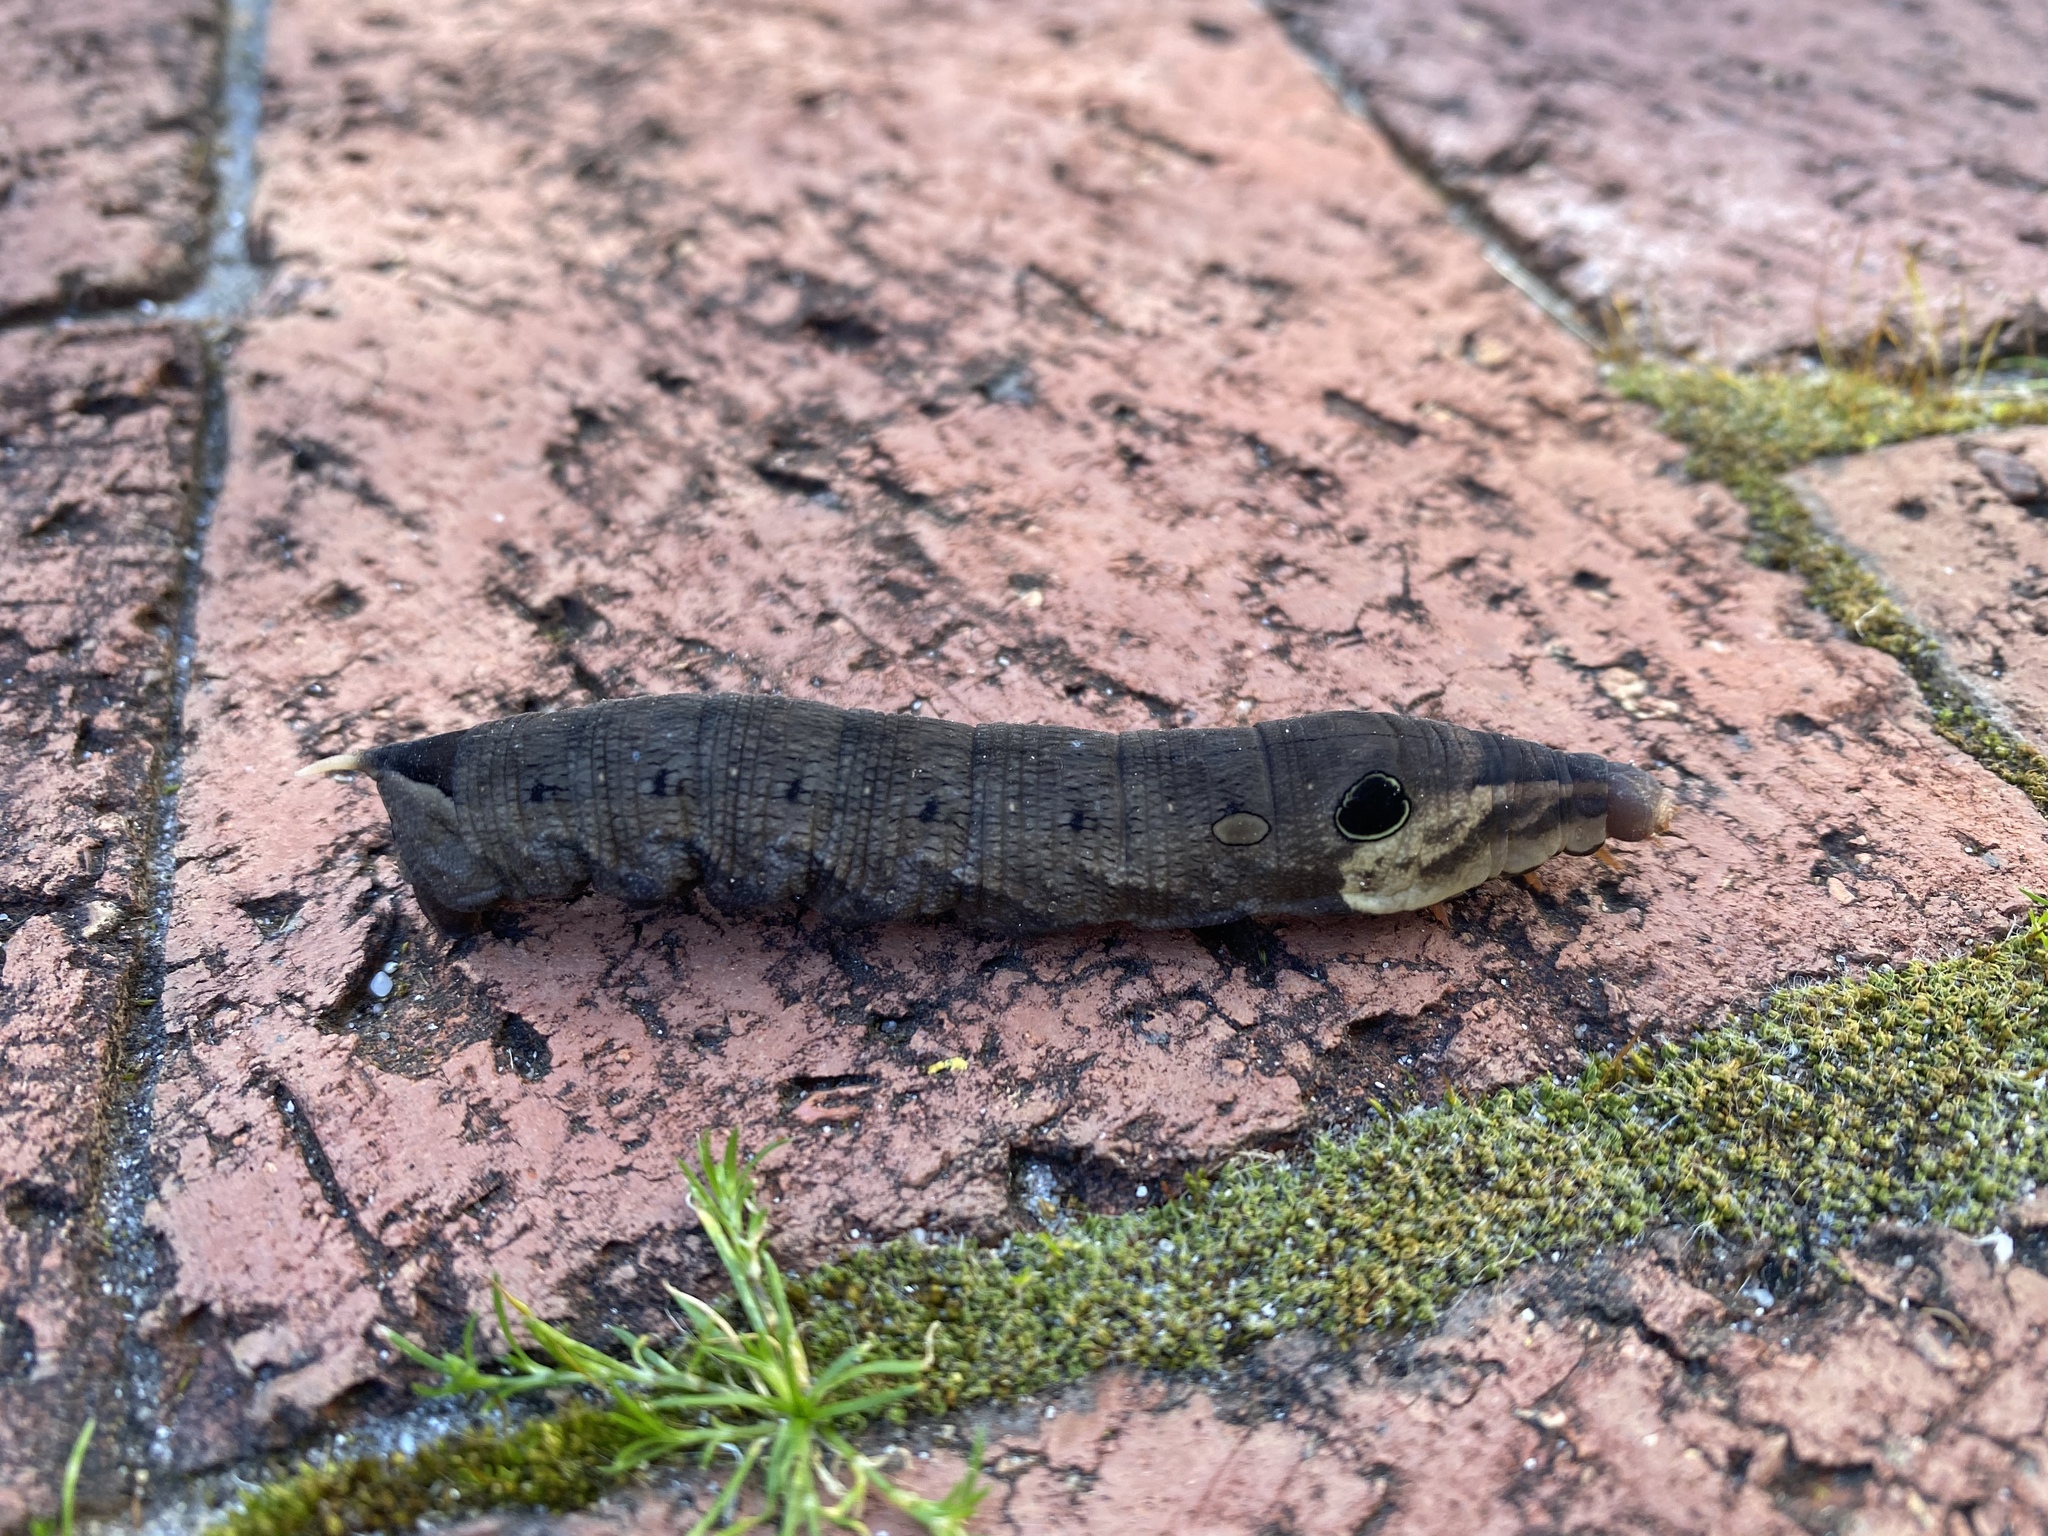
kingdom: Animalia
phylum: Arthropoda
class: Insecta
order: Lepidoptera
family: Sphingidae
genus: Hippotion
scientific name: Hippotion eson
